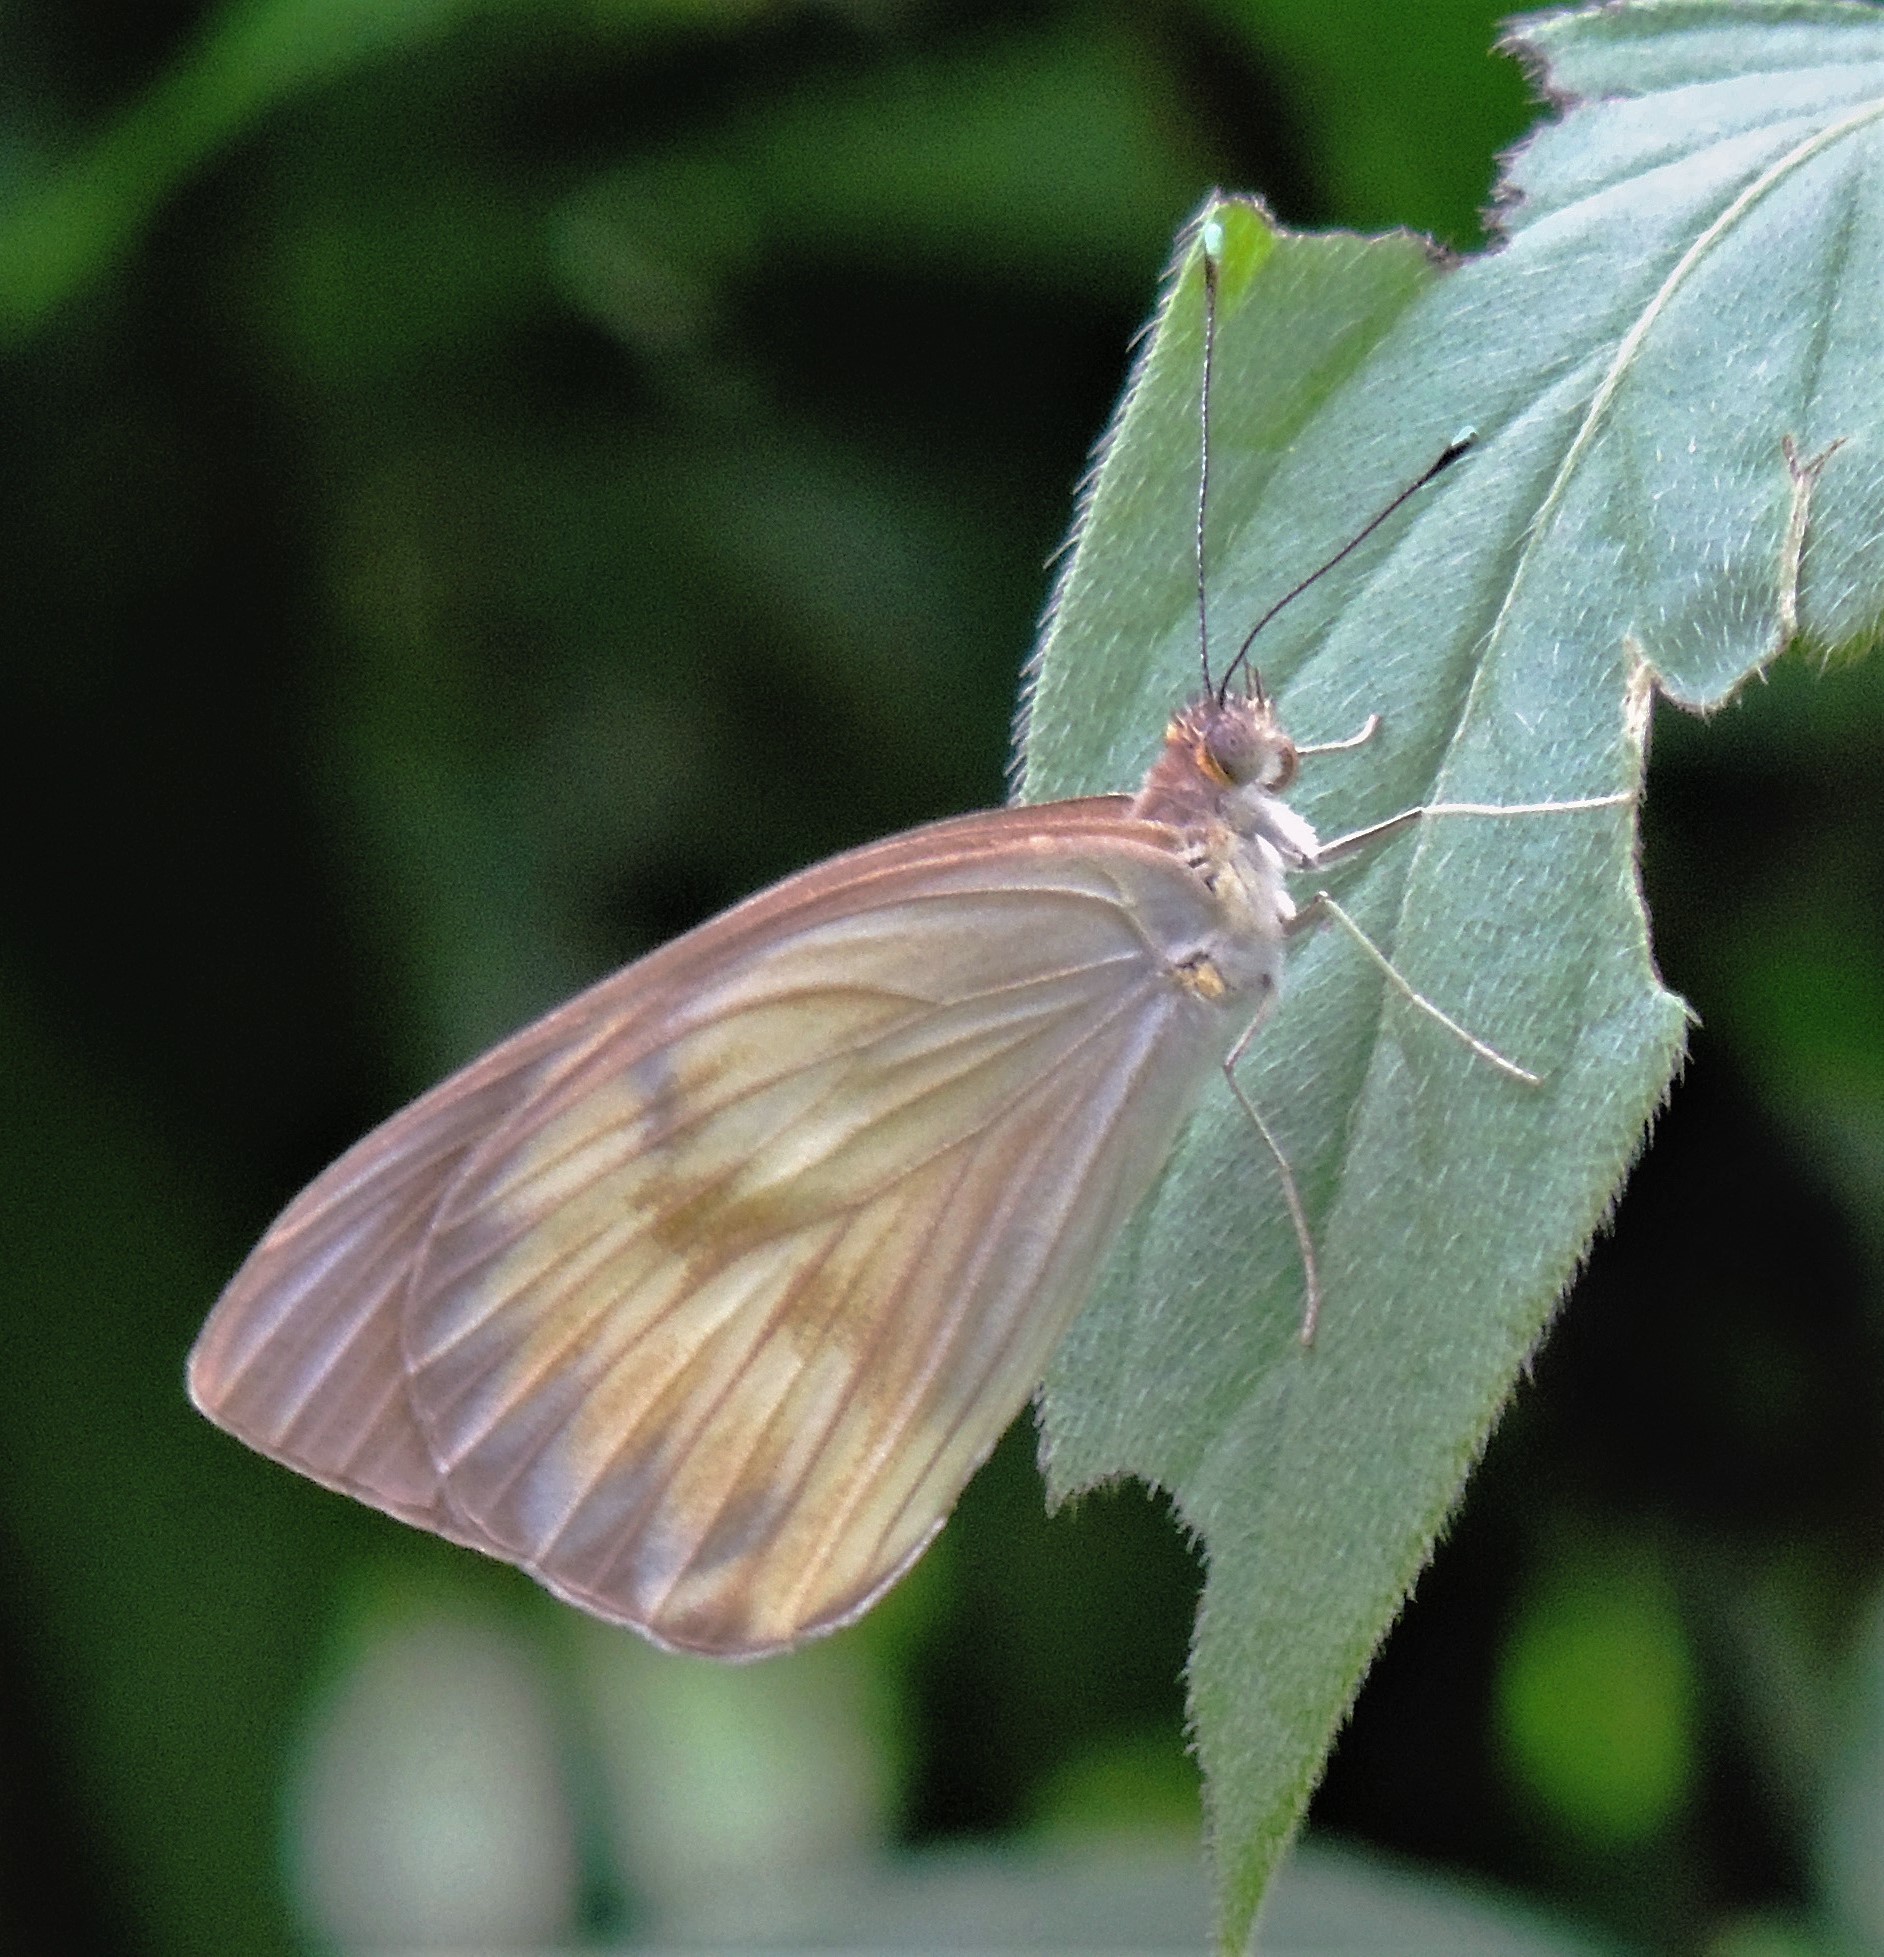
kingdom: Animalia
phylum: Arthropoda
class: Insecta
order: Lepidoptera
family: Pieridae
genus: Ascia
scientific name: Ascia monuste
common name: Great southern white
